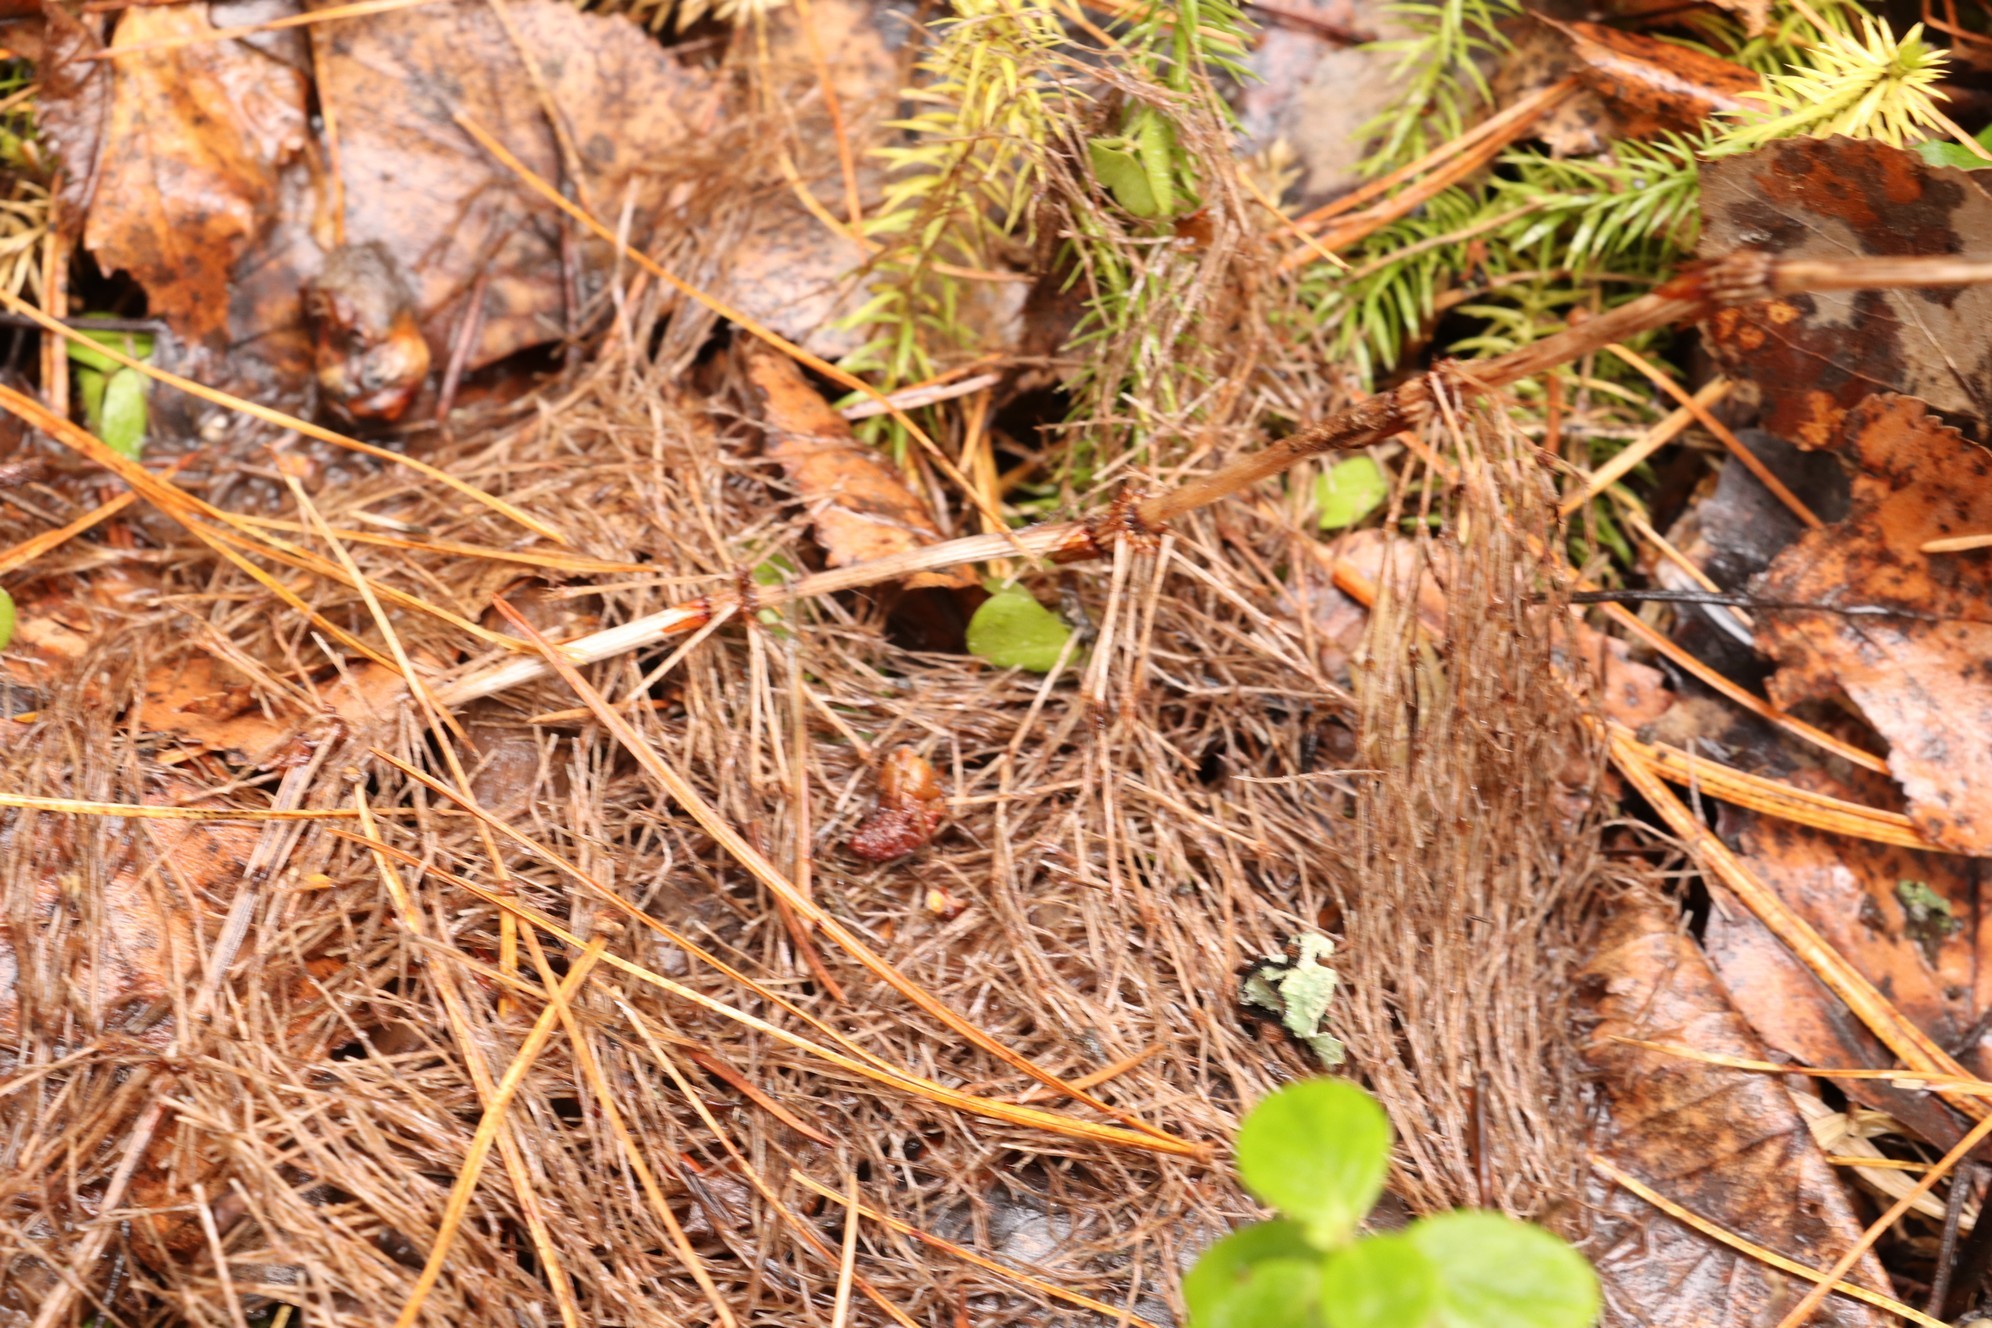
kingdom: Plantae
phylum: Tracheophyta
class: Polypodiopsida
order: Equisetales
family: Equisetaceae
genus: Equisetum
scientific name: Equisetum sylvaticum
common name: Wood horsetail
